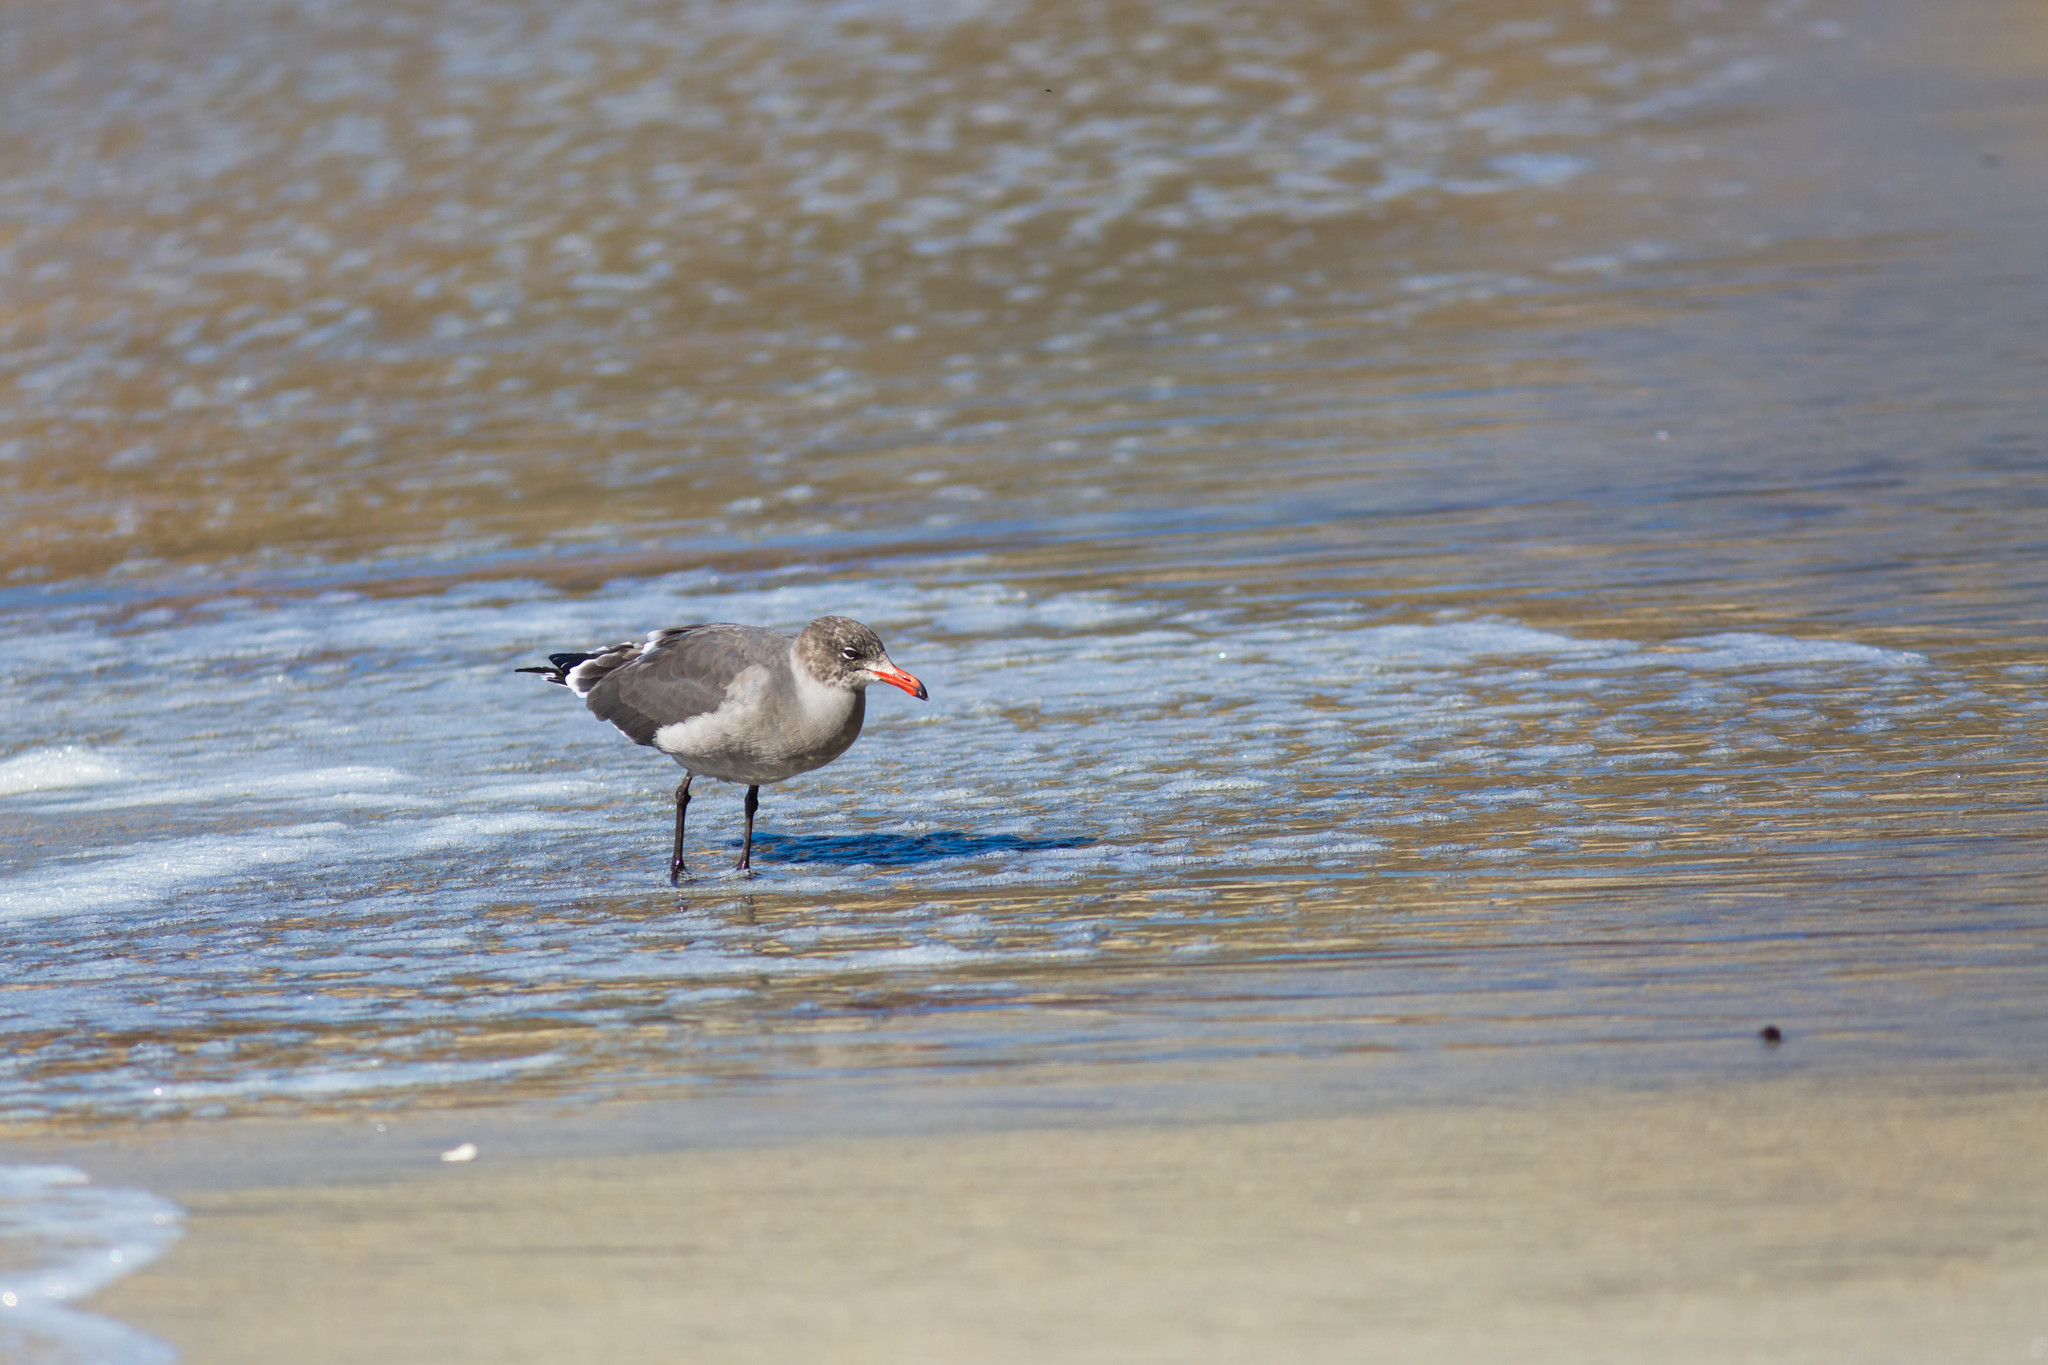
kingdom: Animalia
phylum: Chordata
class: Aves
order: Charadriiformes
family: Laridae
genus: Larus
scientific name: Larus heermanni
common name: Heermann's gull
